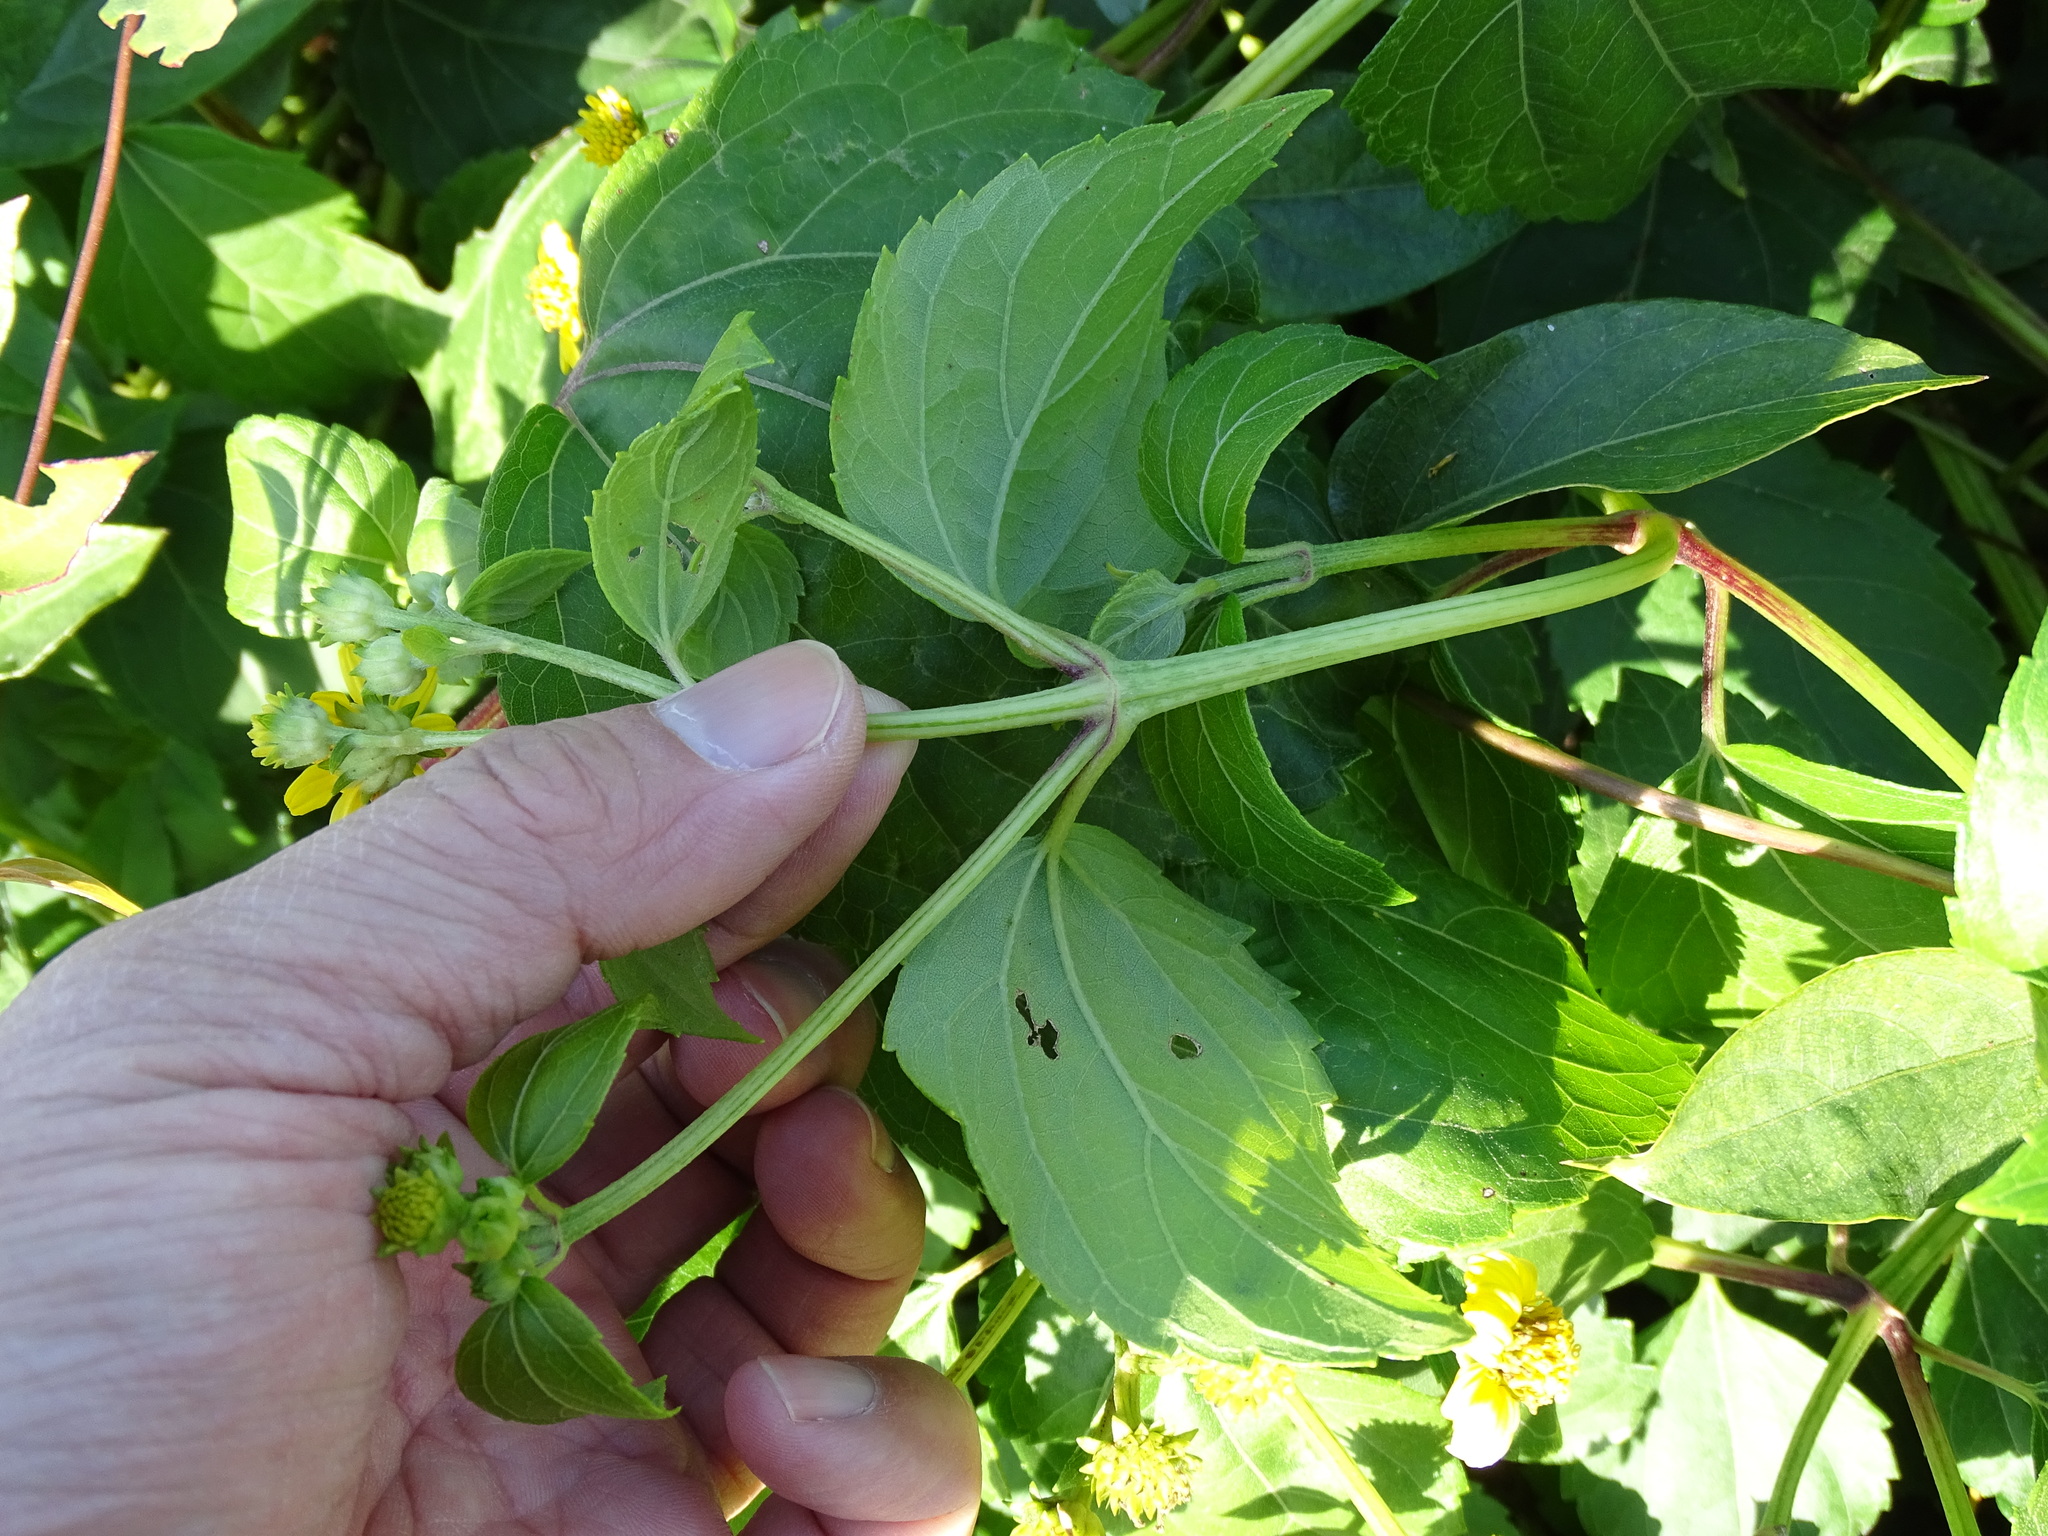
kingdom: Plantae
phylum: Tracheophyta
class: Magnoliopsida
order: Asterales
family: Asteraceae
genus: Wollastonia
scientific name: Wollastonia biflora
